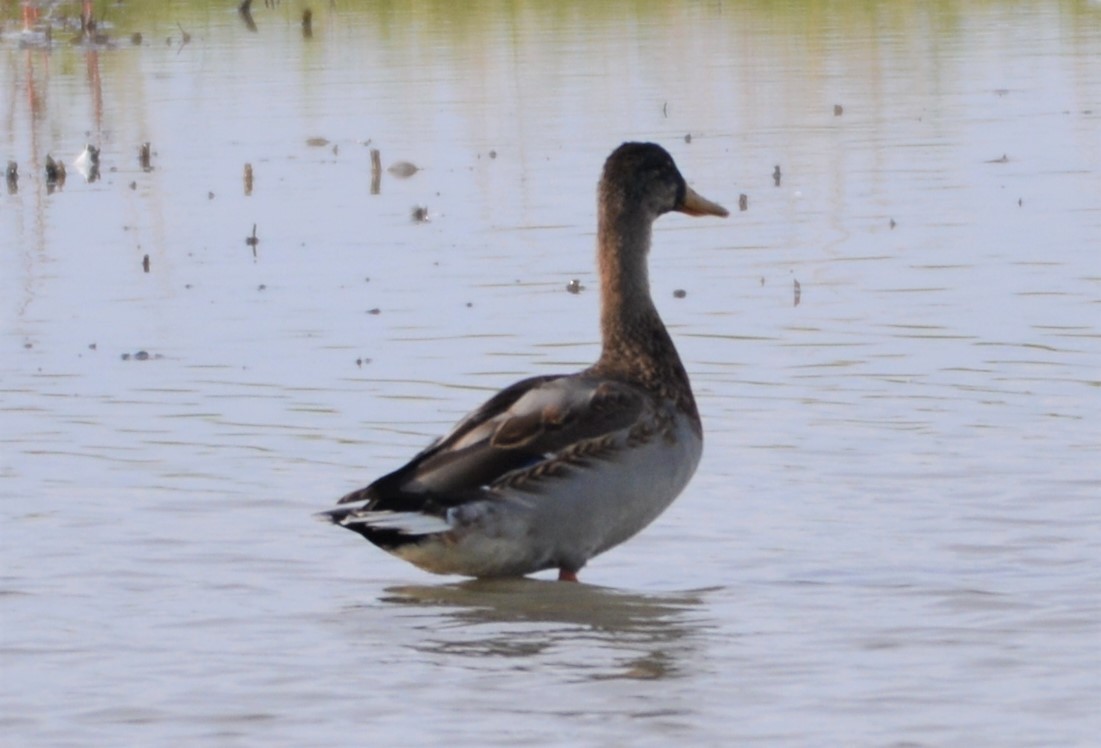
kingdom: Animalia
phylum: Chordata
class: Aves
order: Anseriformes
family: Anatidae
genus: Anas
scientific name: Anas platyrhynchos
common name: Mallard
